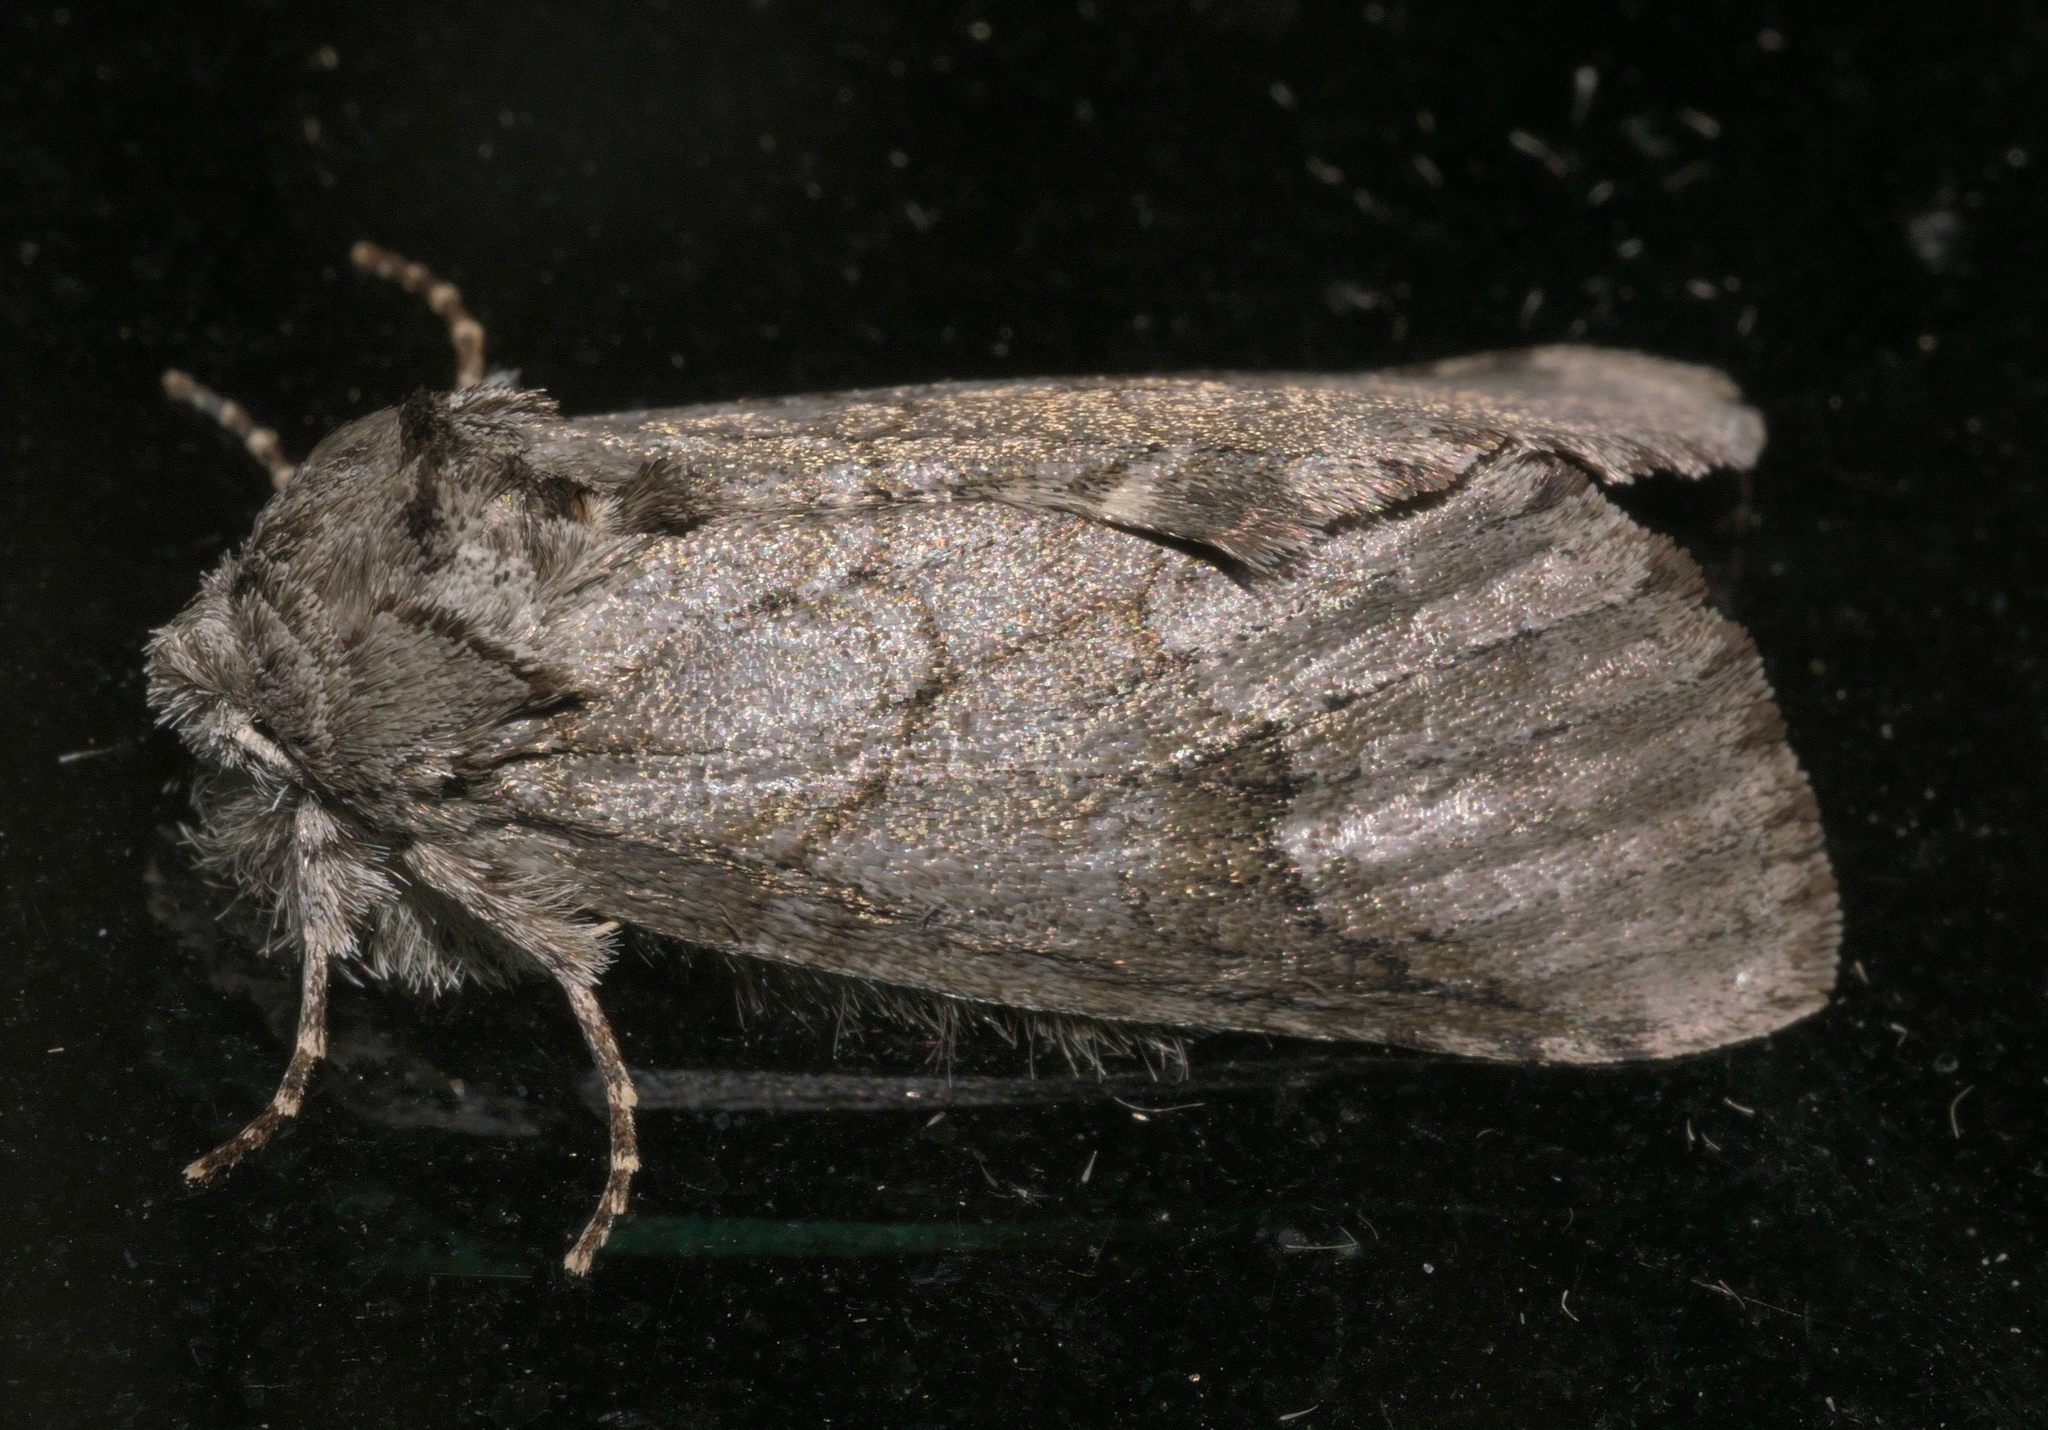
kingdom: Animalia
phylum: Arthropoda
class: Insecta
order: Lepidoptera
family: Notodontidae
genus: Lochmaeus
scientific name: Lochmaeus bilineata
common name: Double-lined prominent
